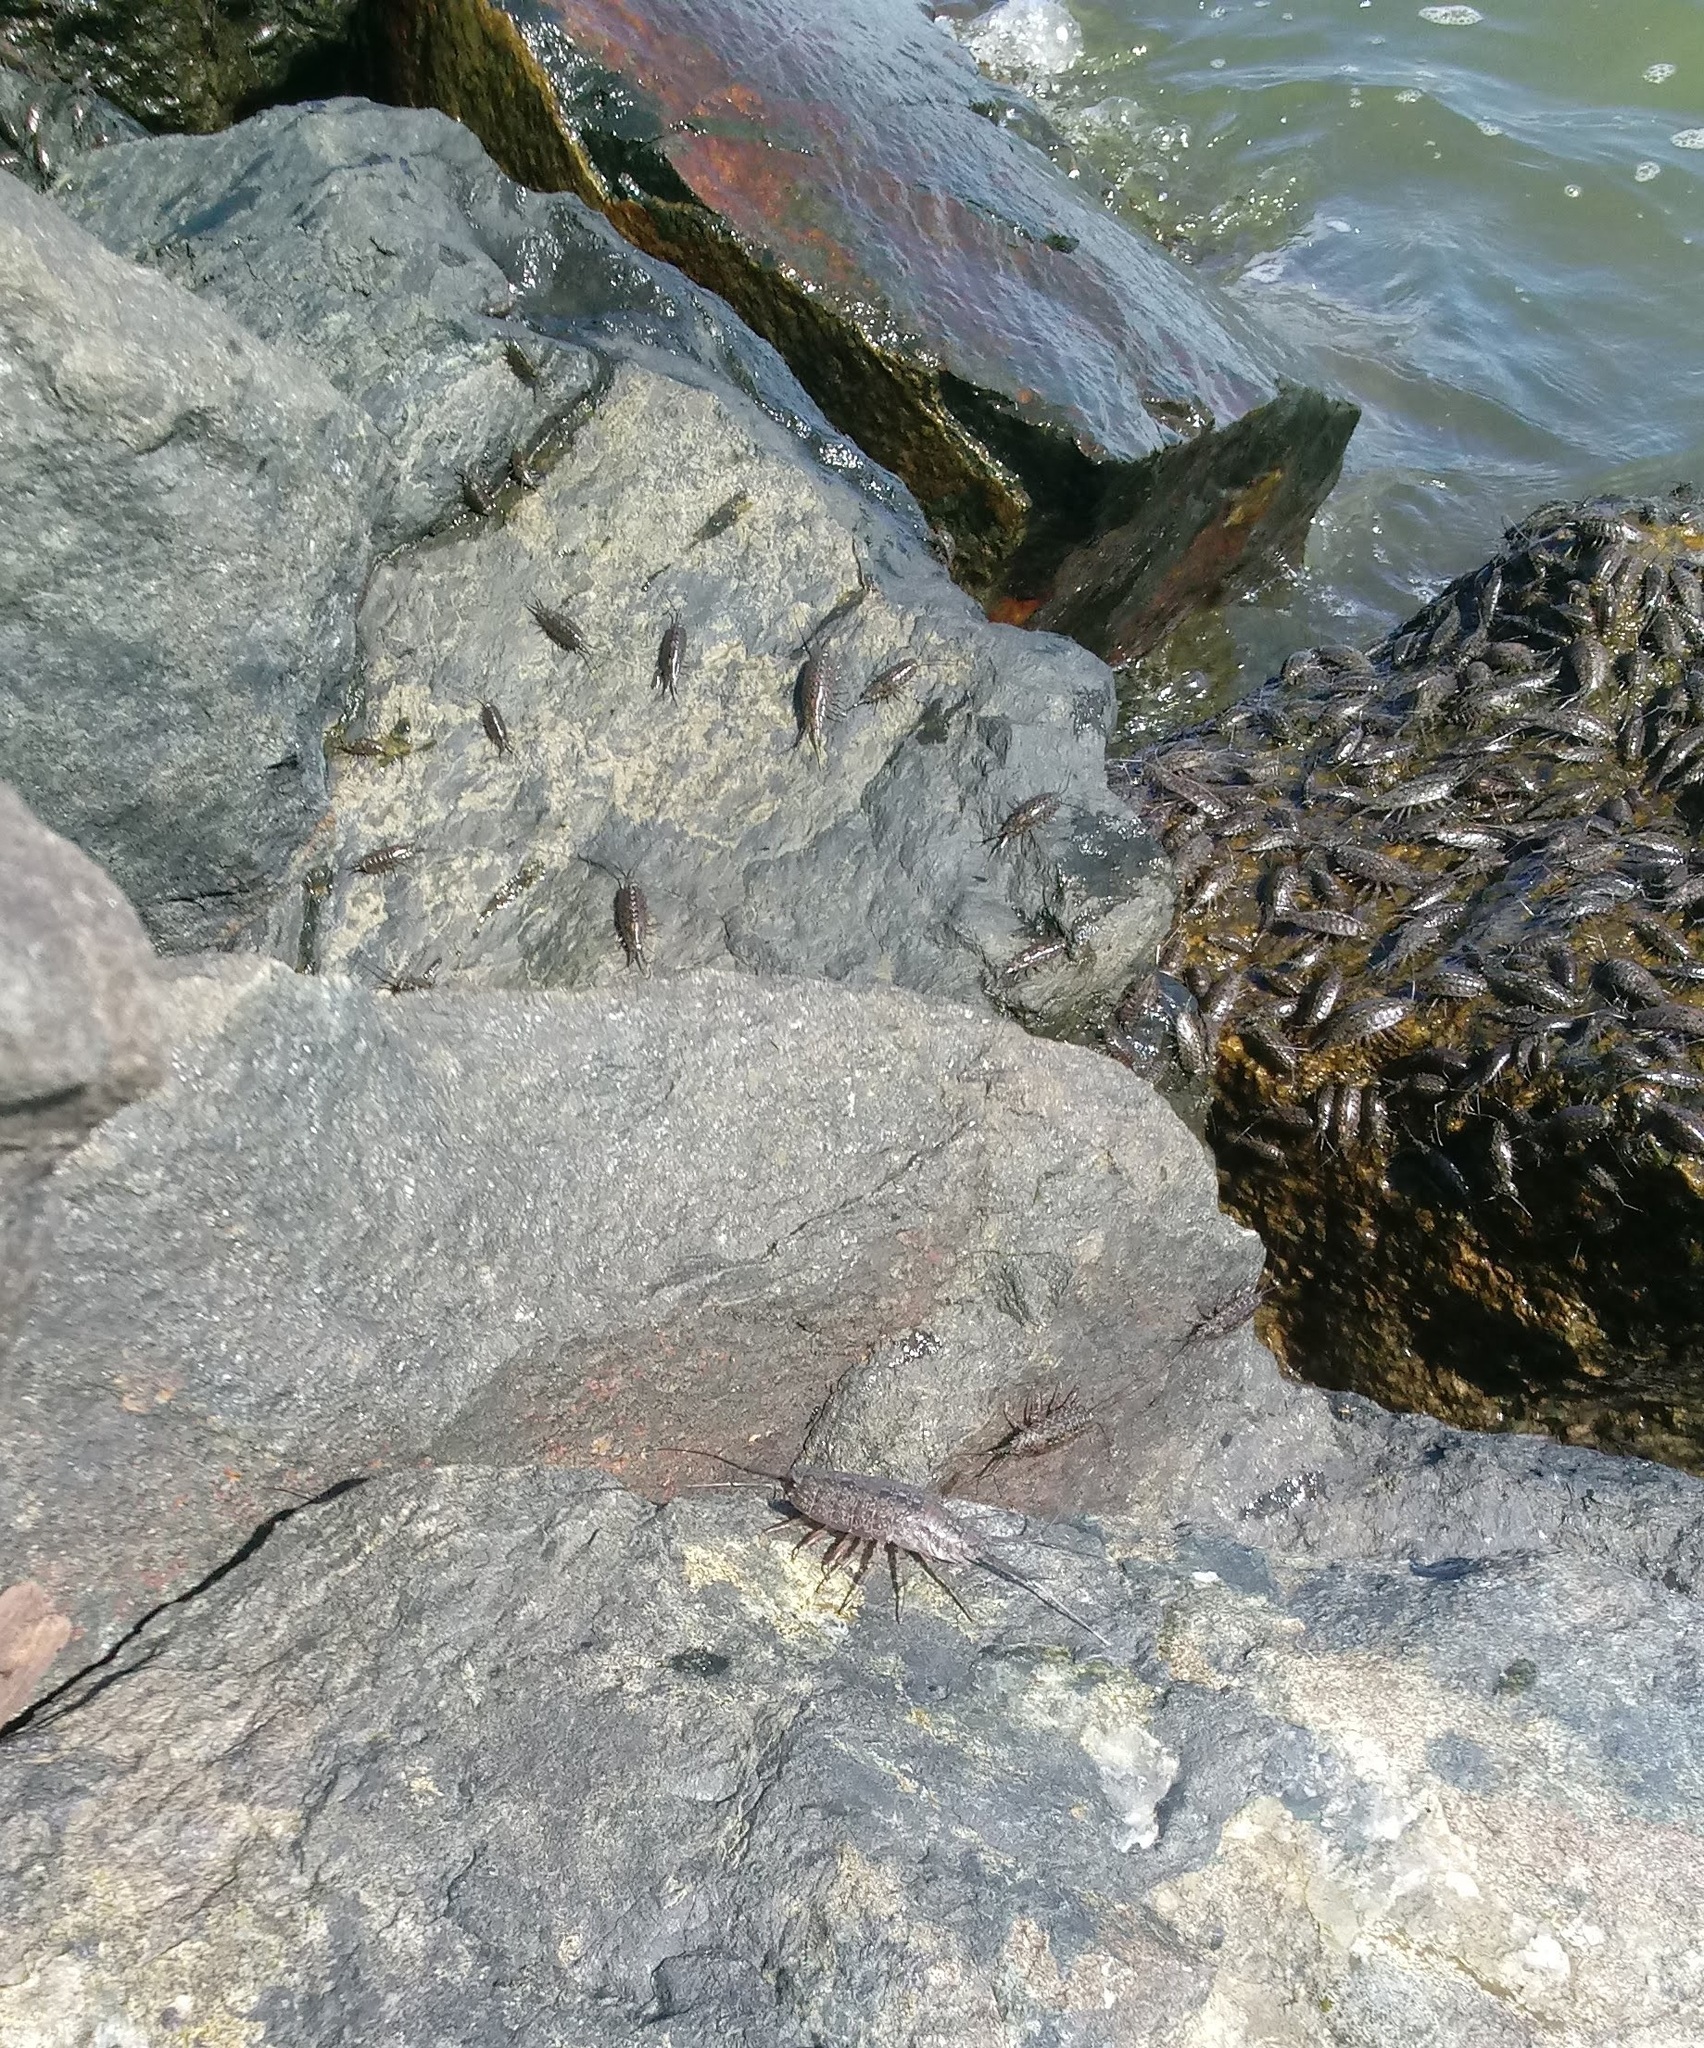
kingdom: Animalia
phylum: Arthropoda
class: Malacostraca
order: Isopoda
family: Ligiidae
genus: Ligia
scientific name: Ligia exotica
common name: Wharf roach
